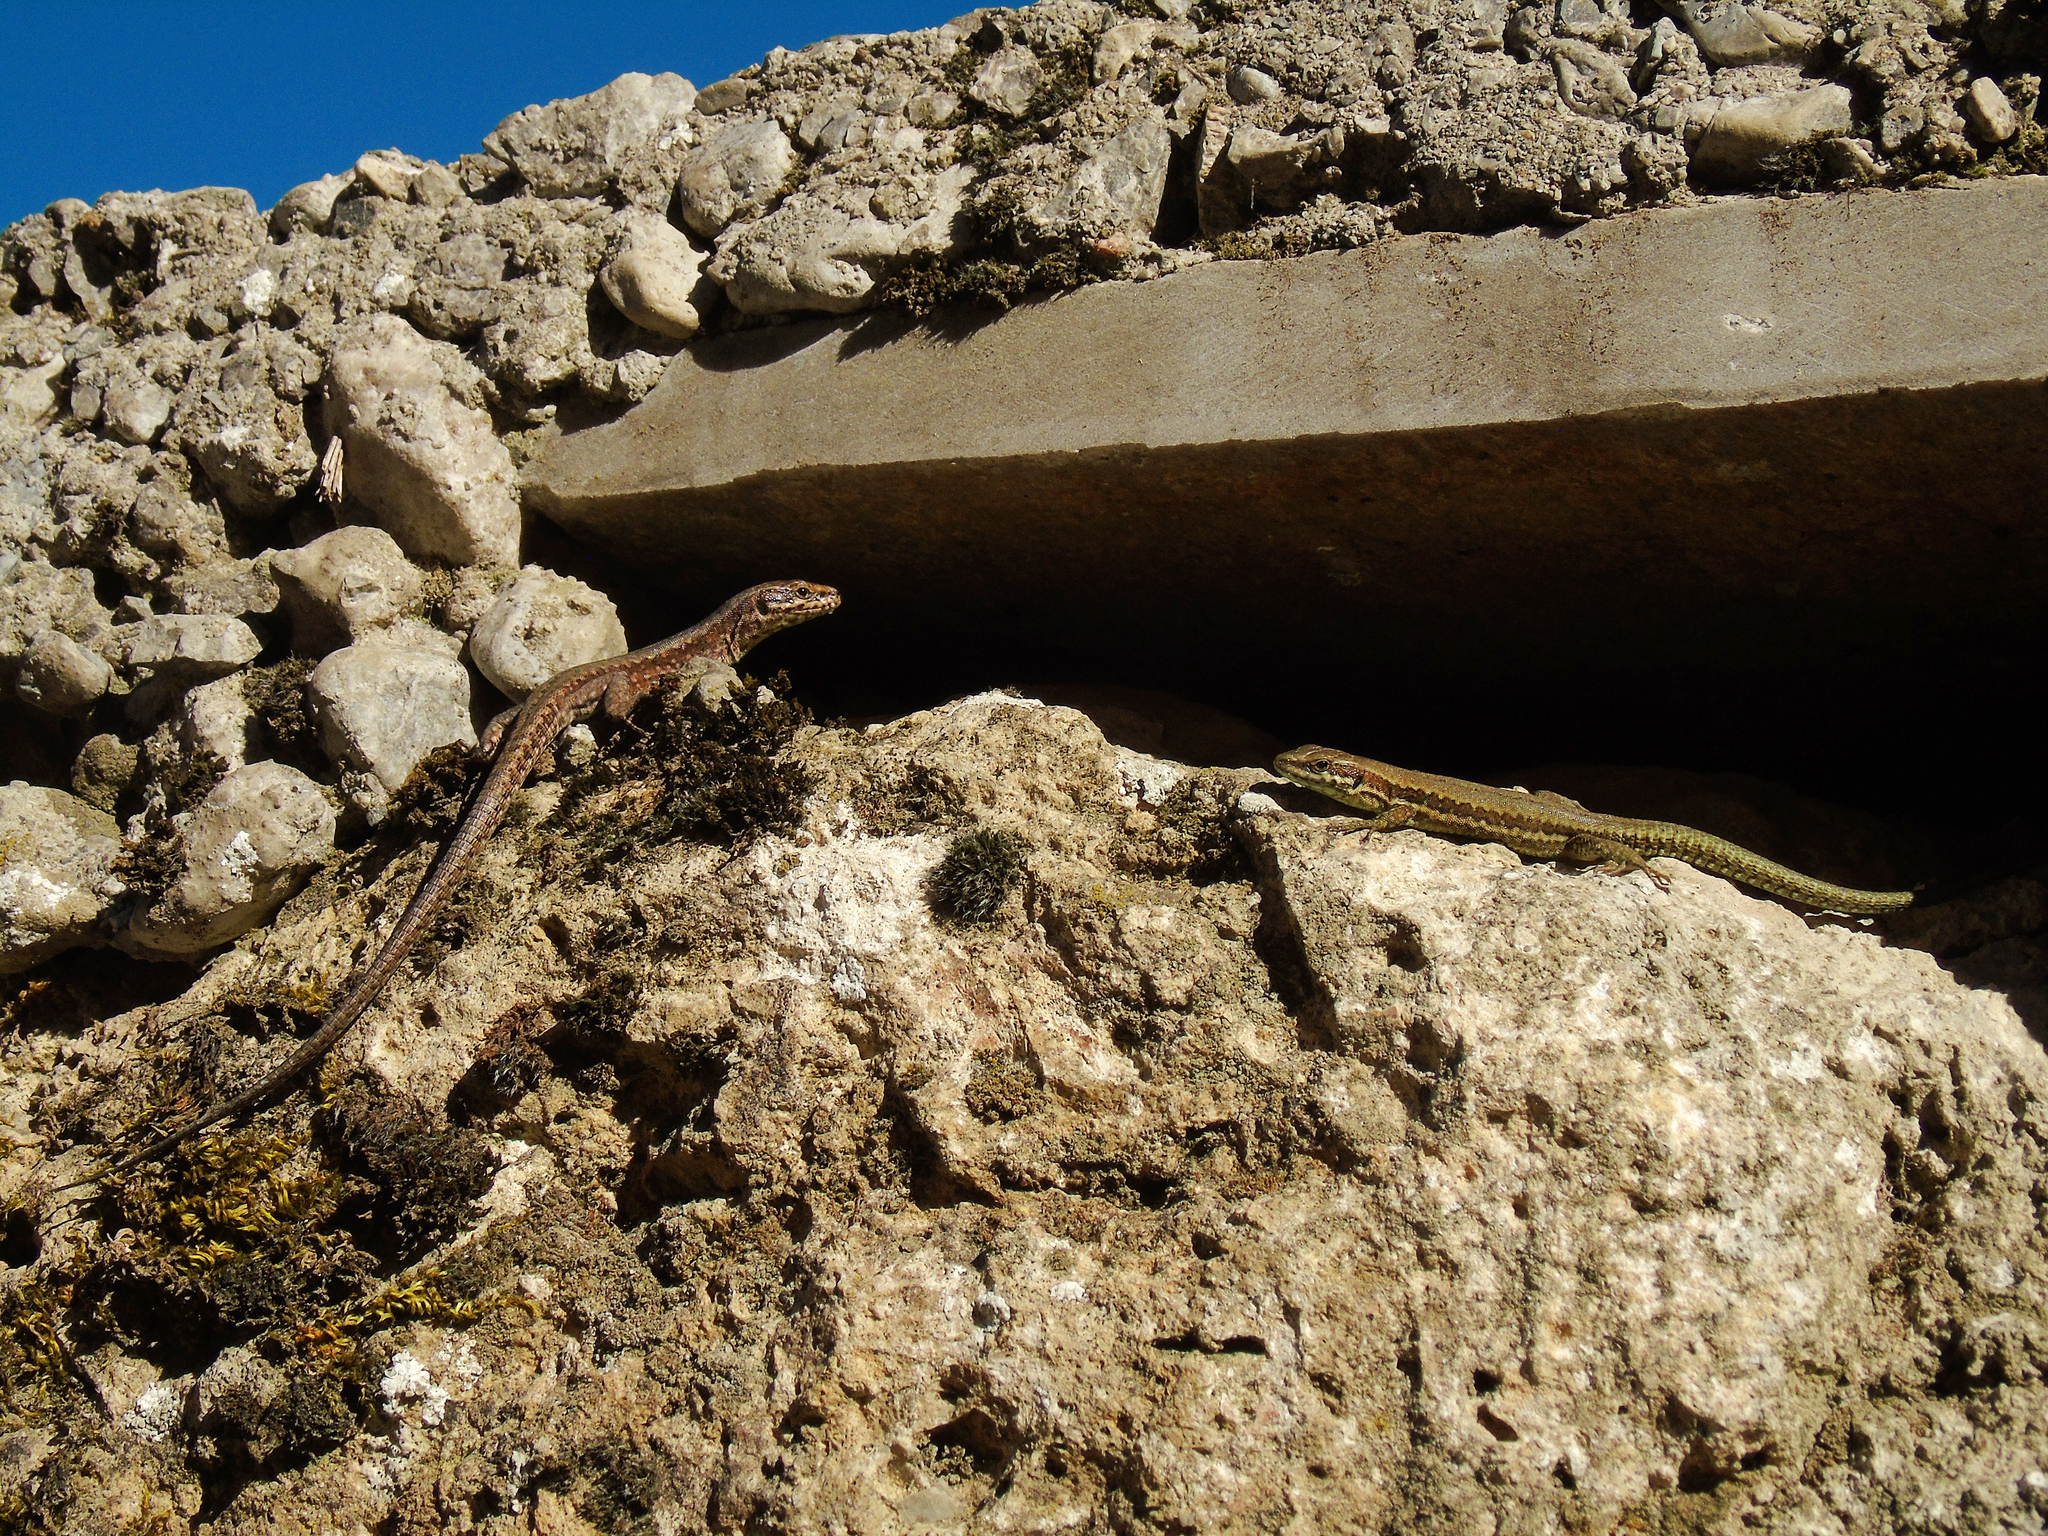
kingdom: Animalia
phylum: Chordata
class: Squamata
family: Lacertidae
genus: Podarcis
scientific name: Podarcis muralis
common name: Common wall lizard
